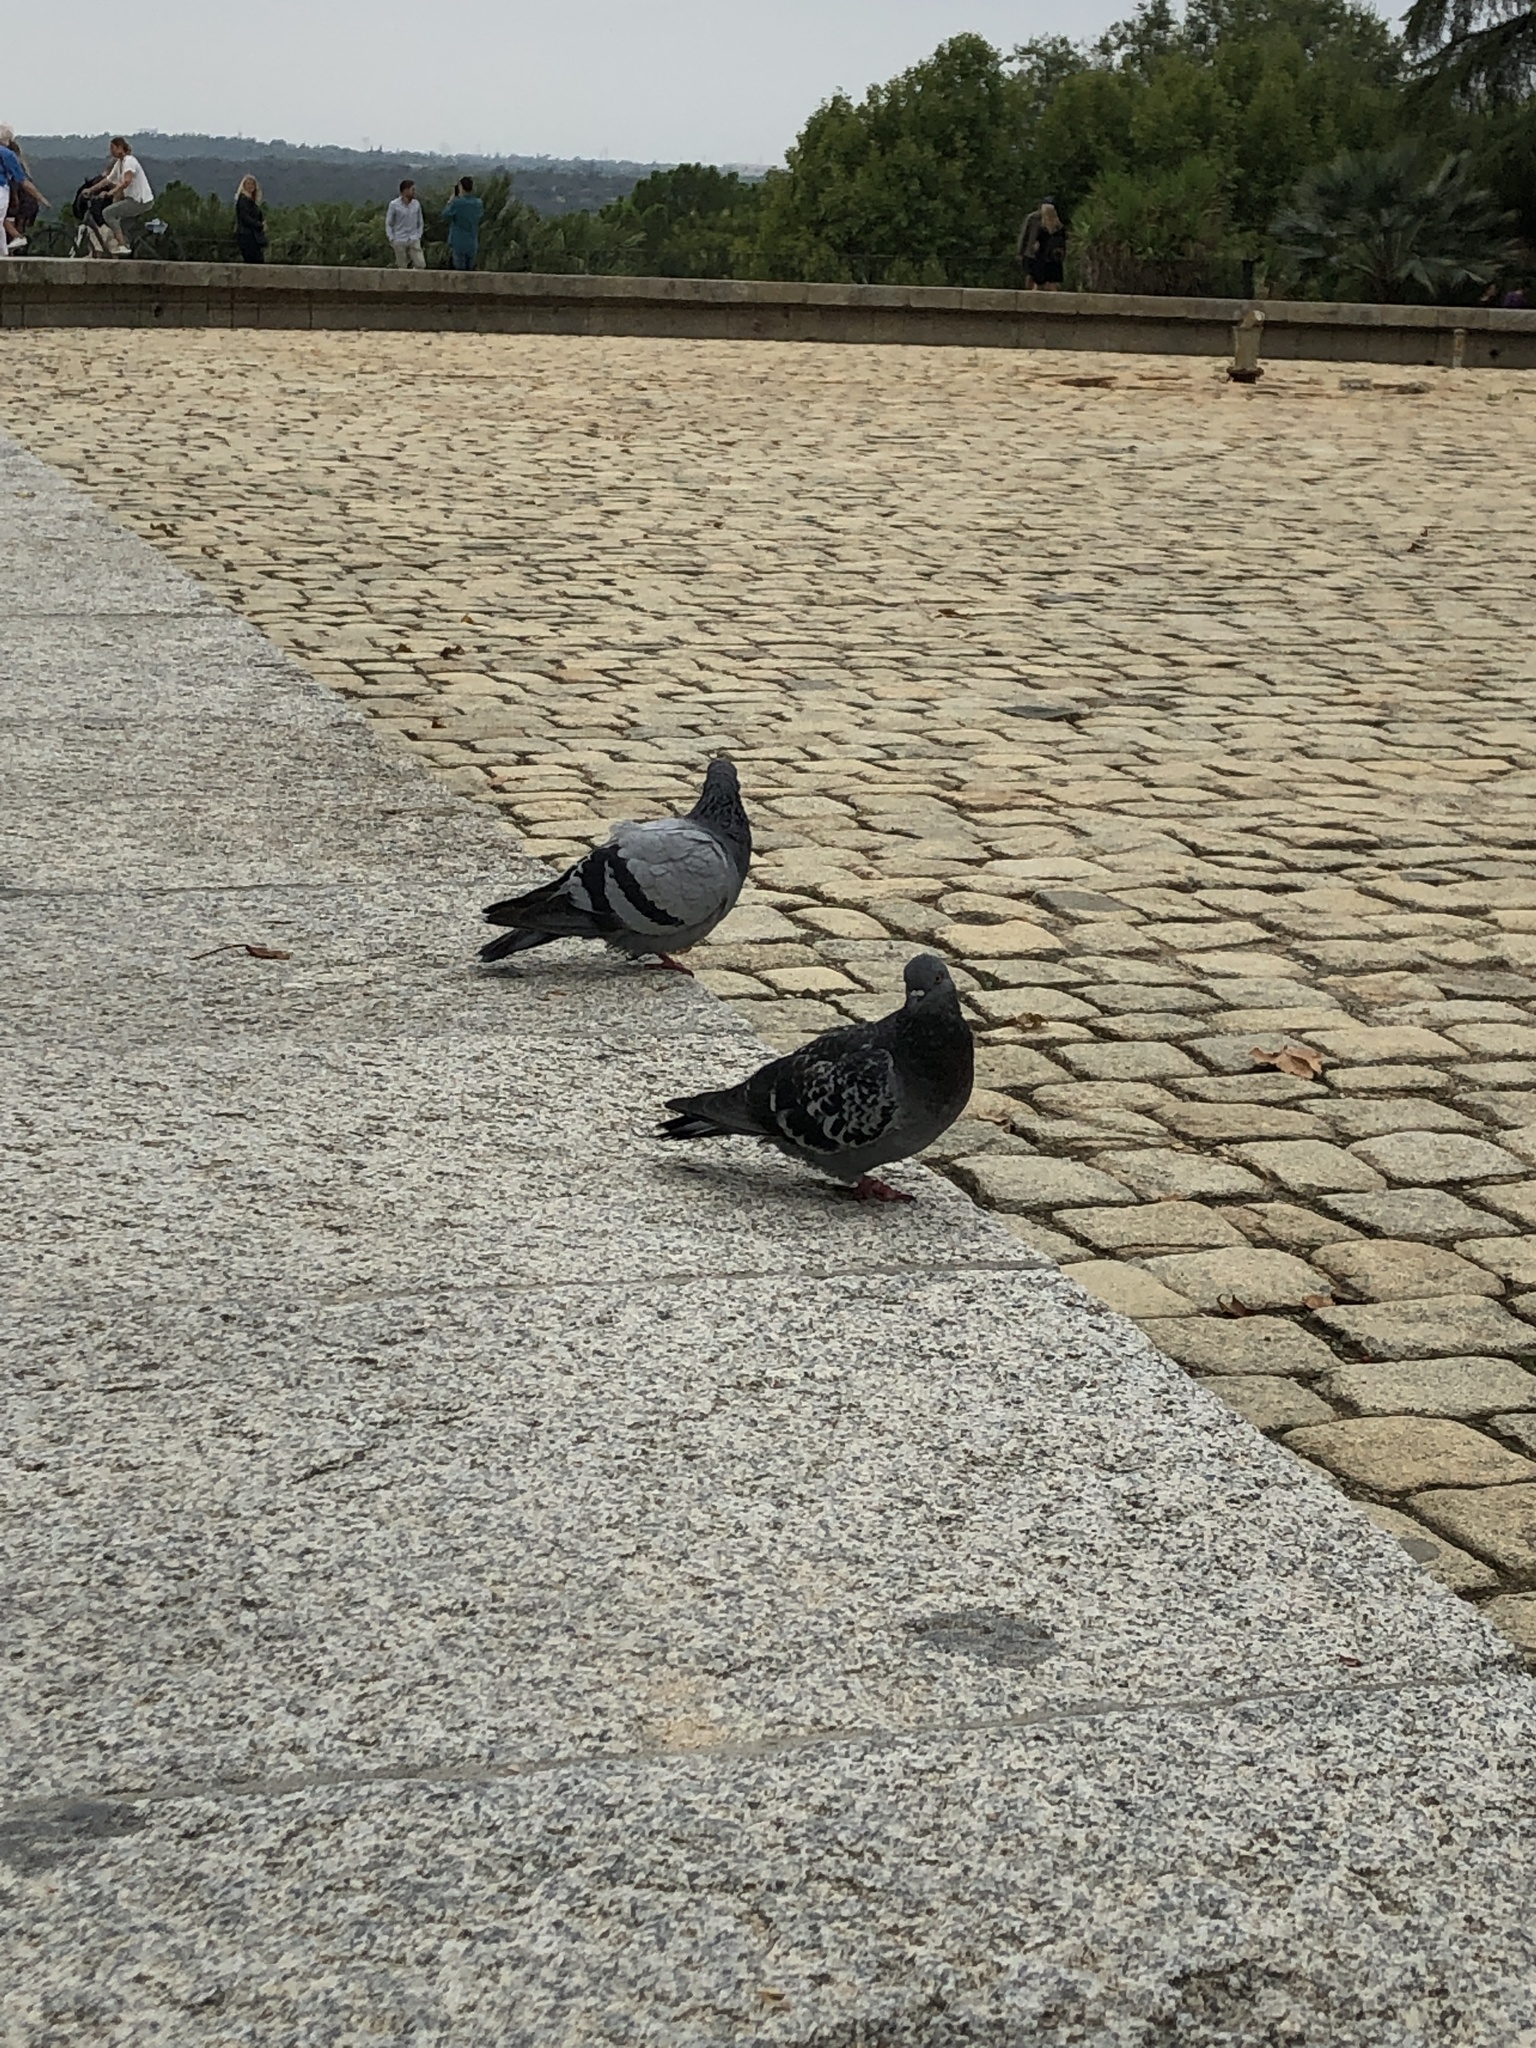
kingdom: Animalia
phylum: Chordata
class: Aves
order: Columbiformes
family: Columbidae
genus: Columba
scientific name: Columba livia
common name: Rock pigeon
